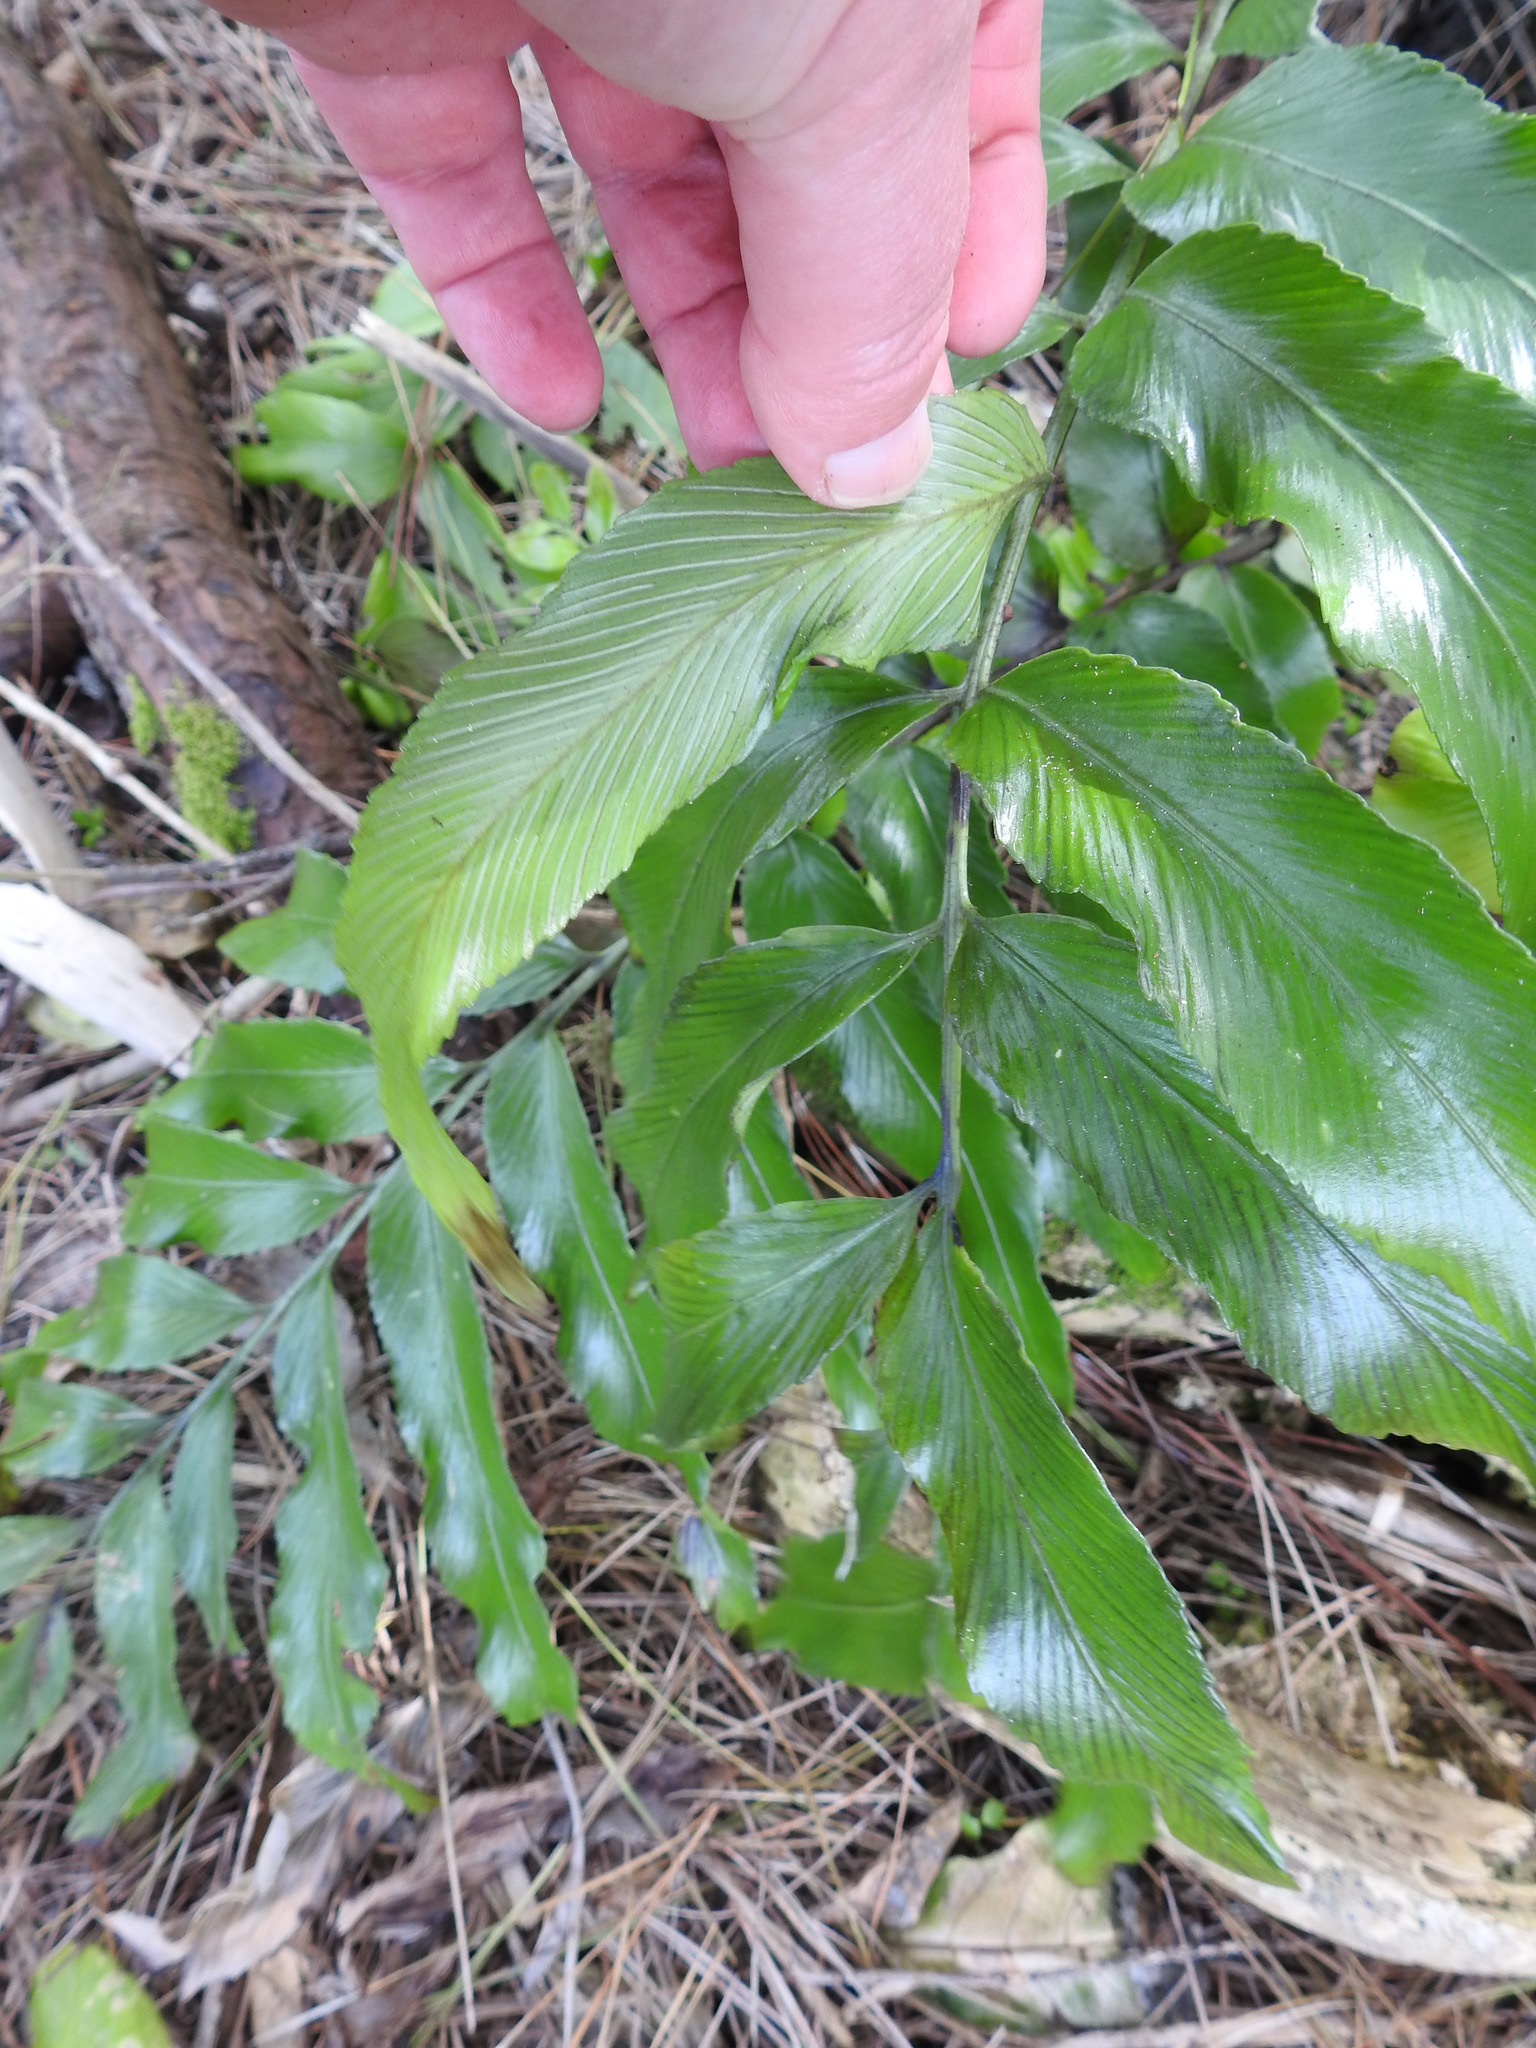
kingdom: Plantae
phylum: Tracheophyta
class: Polypodiopsida
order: Polypodiales
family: Aspleniaceae
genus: Asplenium
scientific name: Asplenium oblongifolium
